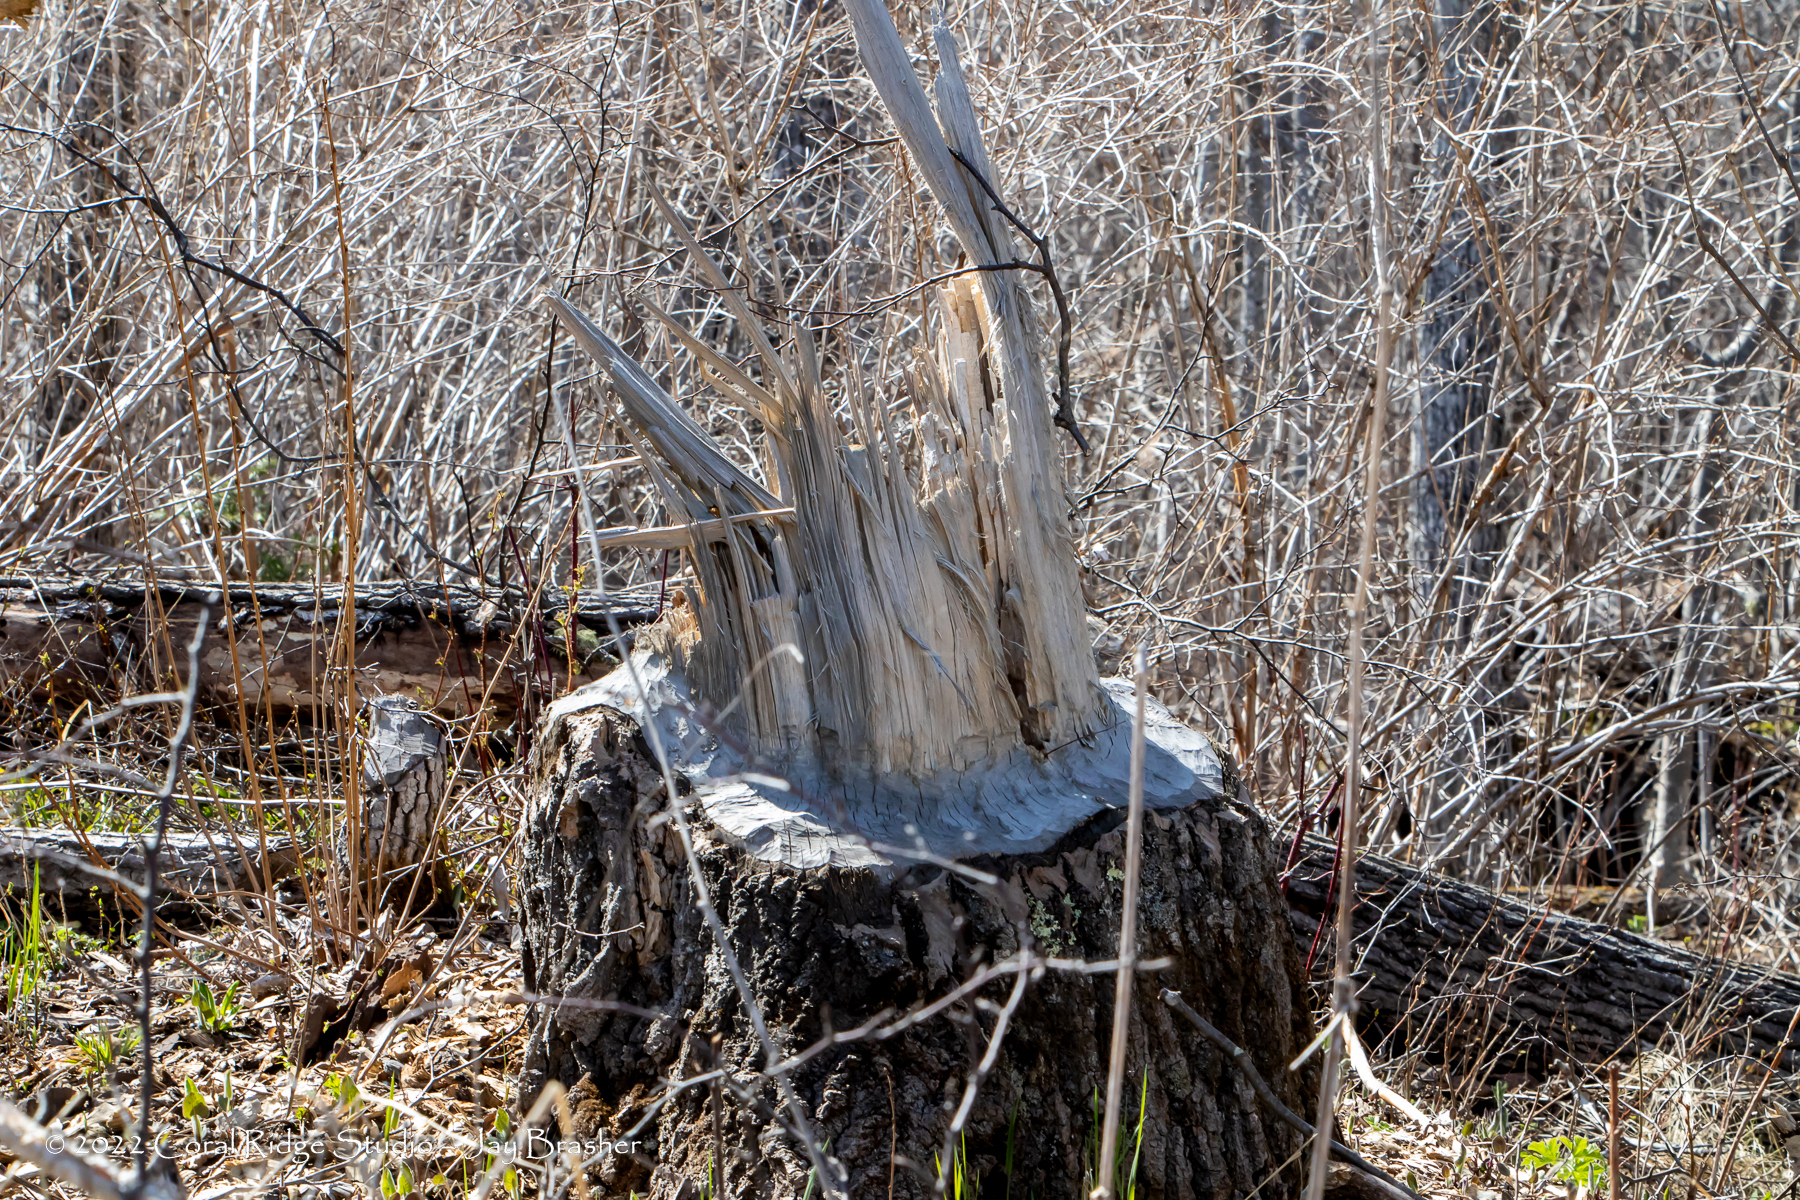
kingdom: Animalia
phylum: Chordata
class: Mammalia
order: Rodentia
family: Castoridae
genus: Castor
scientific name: Castor canadensis
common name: American beaver
